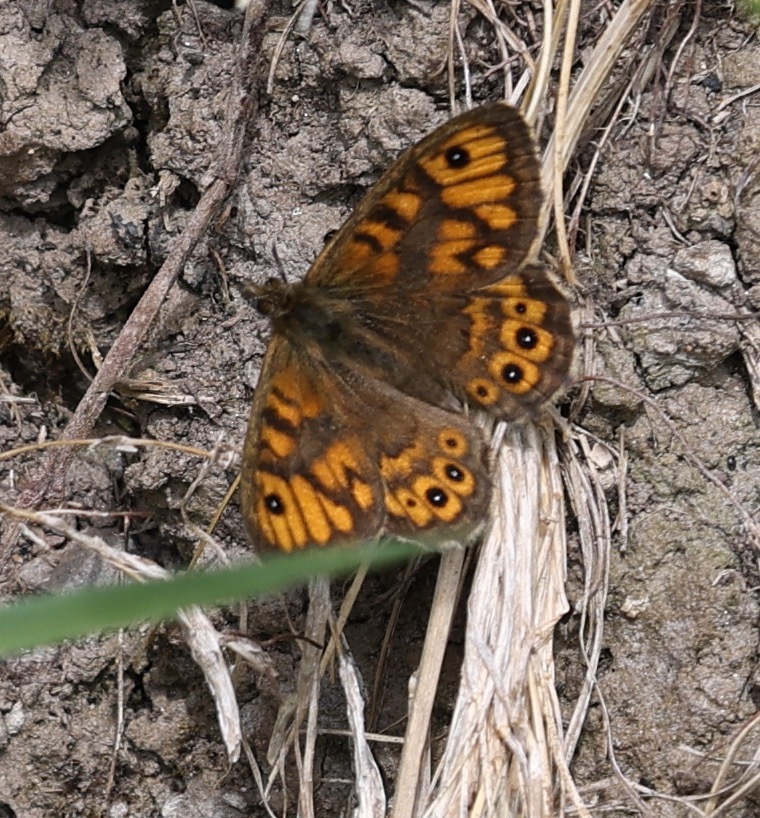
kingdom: Animalia
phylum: Arthropoda
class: Insecta
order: Lepidoptera
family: Nymphalidae
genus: Pararge
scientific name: Pararge Lasiommata megera
